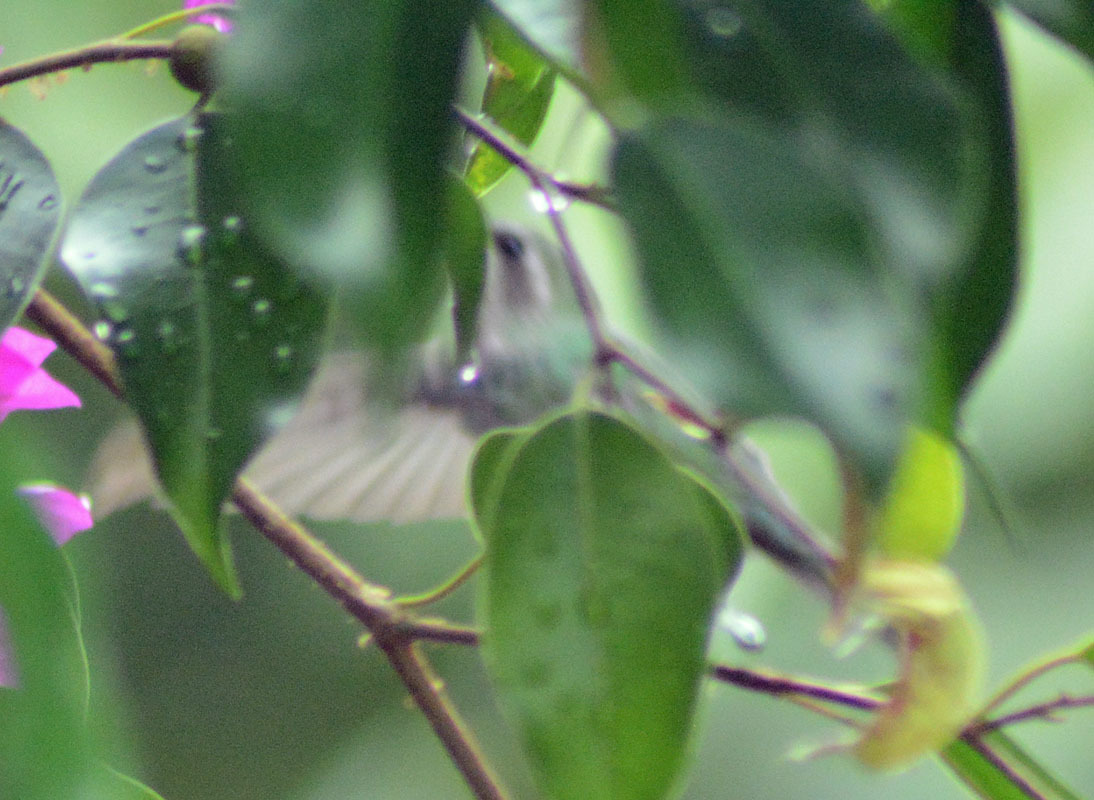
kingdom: Animalia
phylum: Chordata
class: Aves
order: Apodiformes
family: Trochilidae
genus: Cynanthus
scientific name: Cynanthus latirostris
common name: Broad-billed hummingbird
